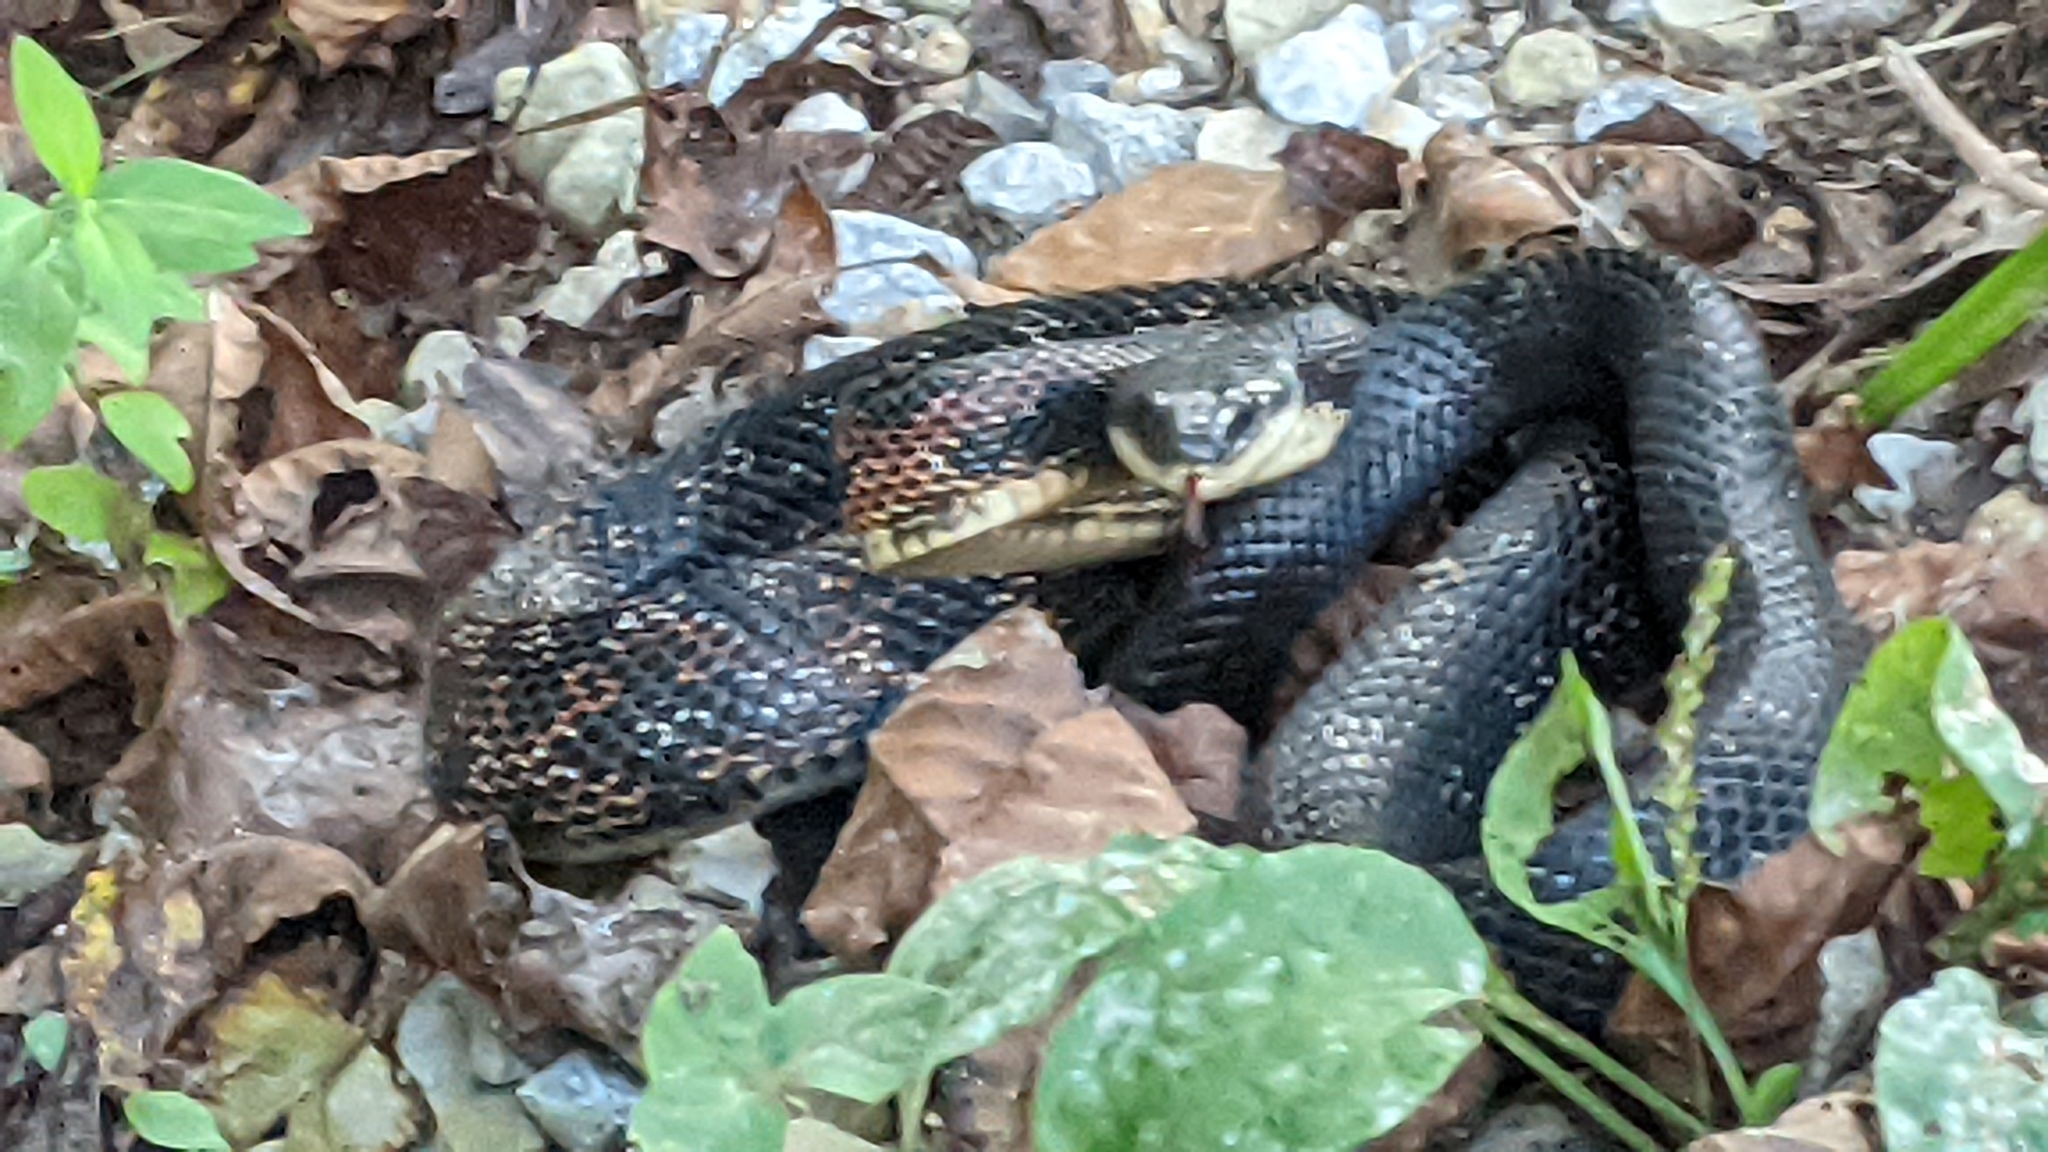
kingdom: Animalia
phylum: Chordata
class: Squamata
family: Colubridae
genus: Pantherophis
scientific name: Pantherophis obsoletus
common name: Black rat snake
